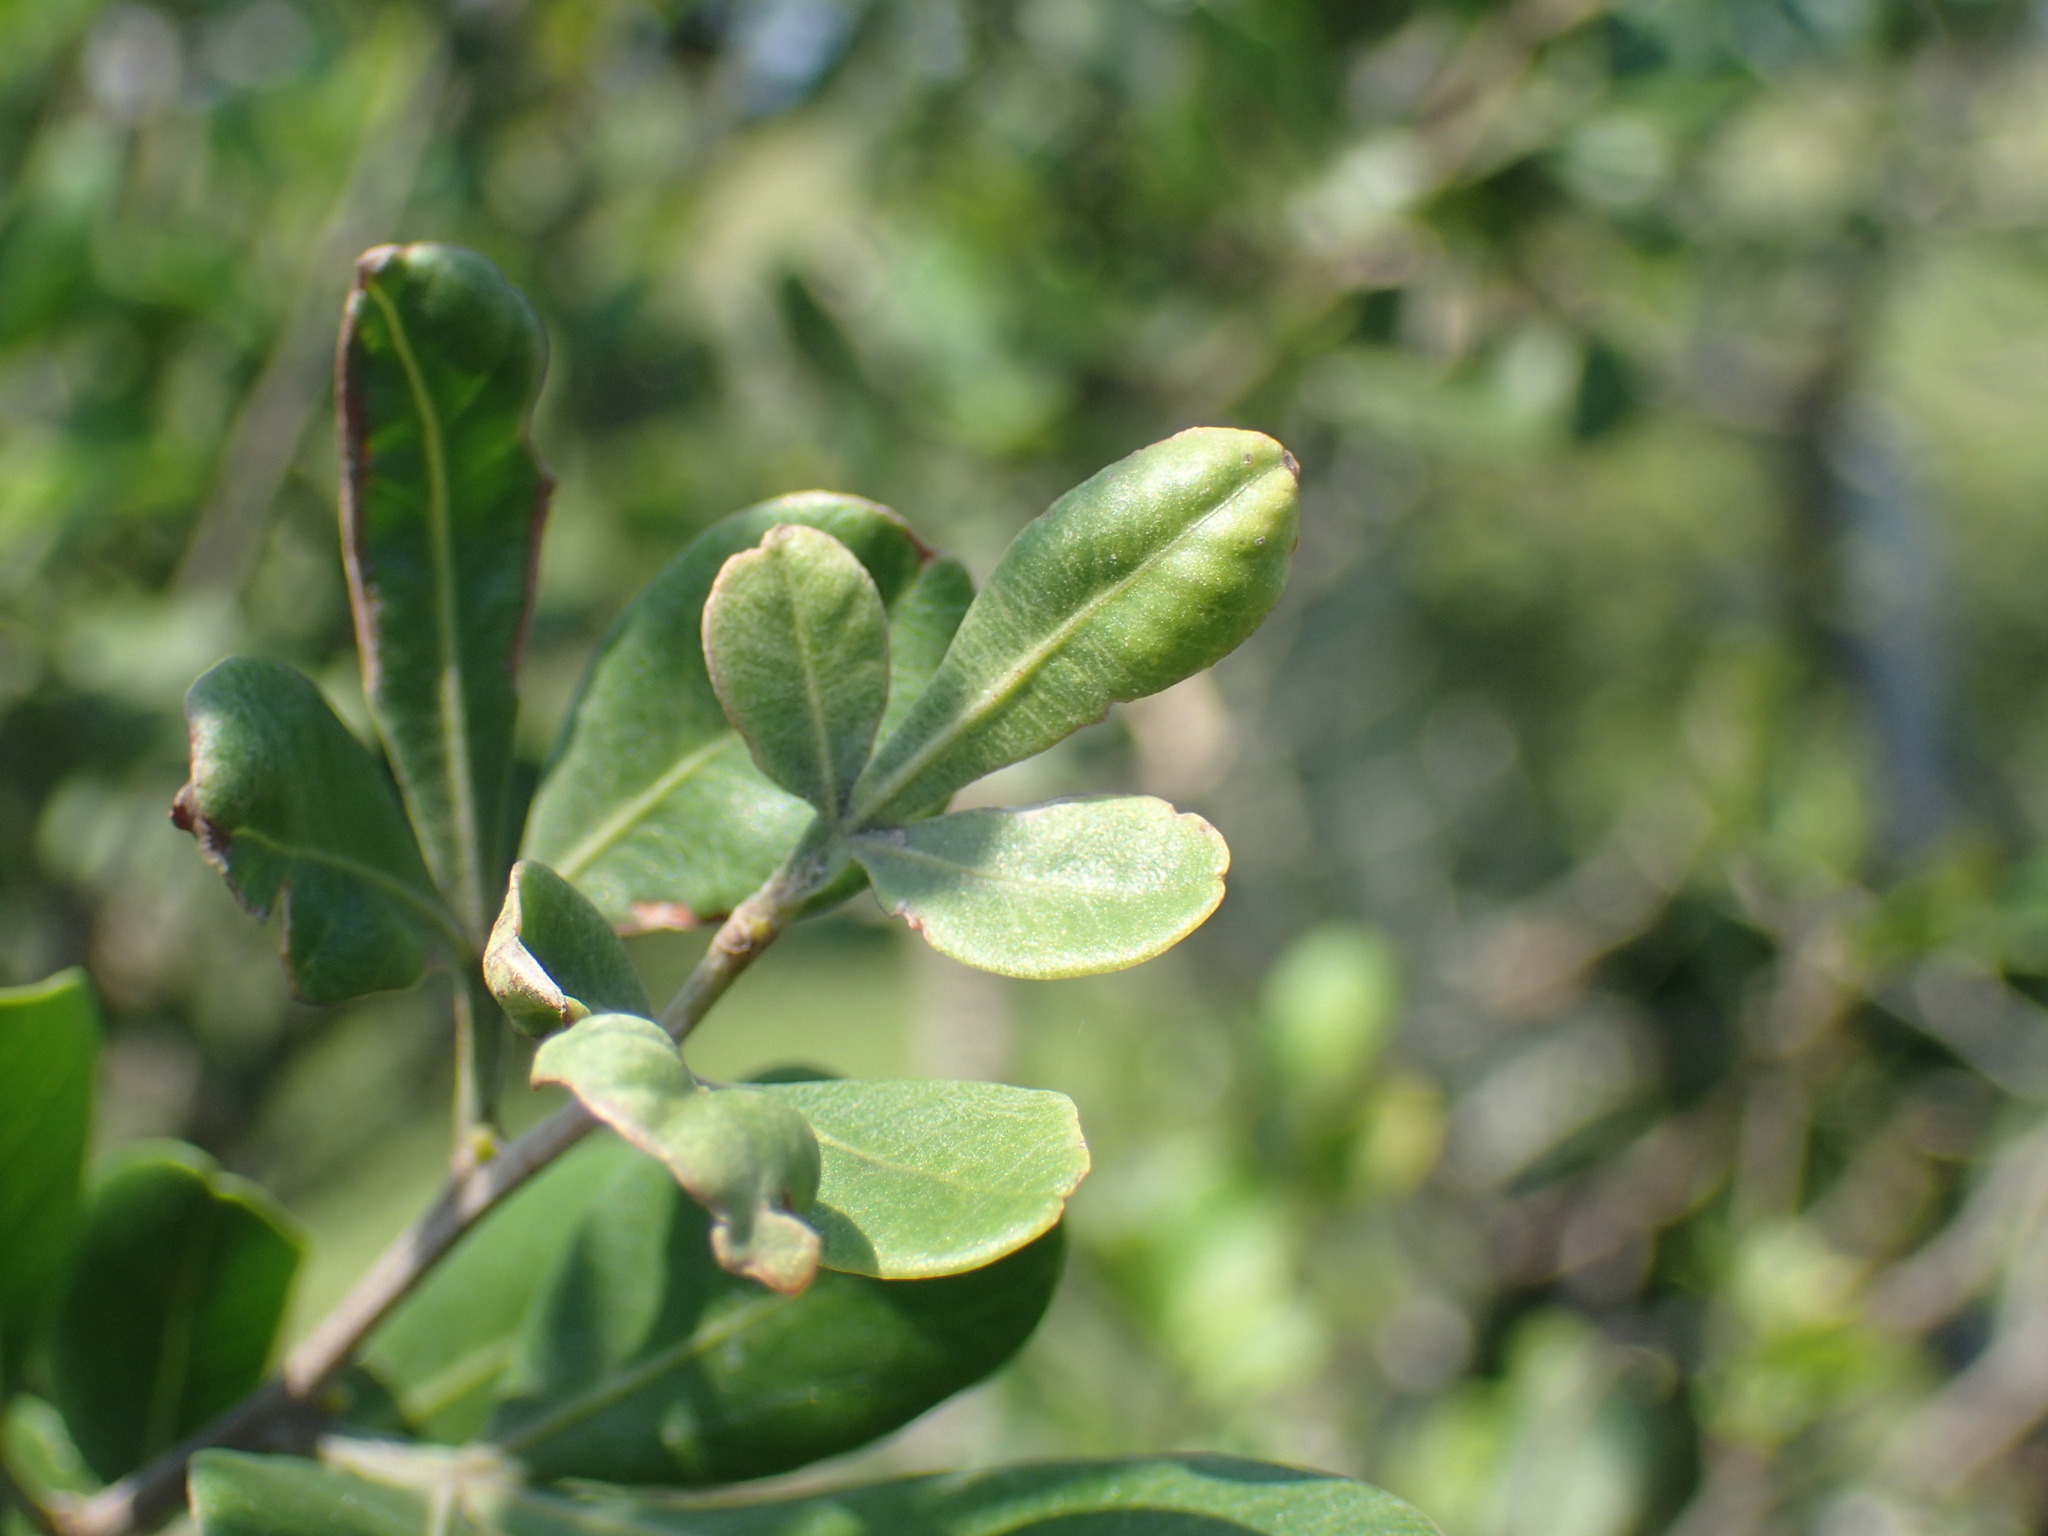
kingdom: Plantae
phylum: Tracheophyta
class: Magnoliopsida
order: Sapindales
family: Meliaceae
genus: Ekebergia
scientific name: Ekebergia pterophylla
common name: Cape ash
